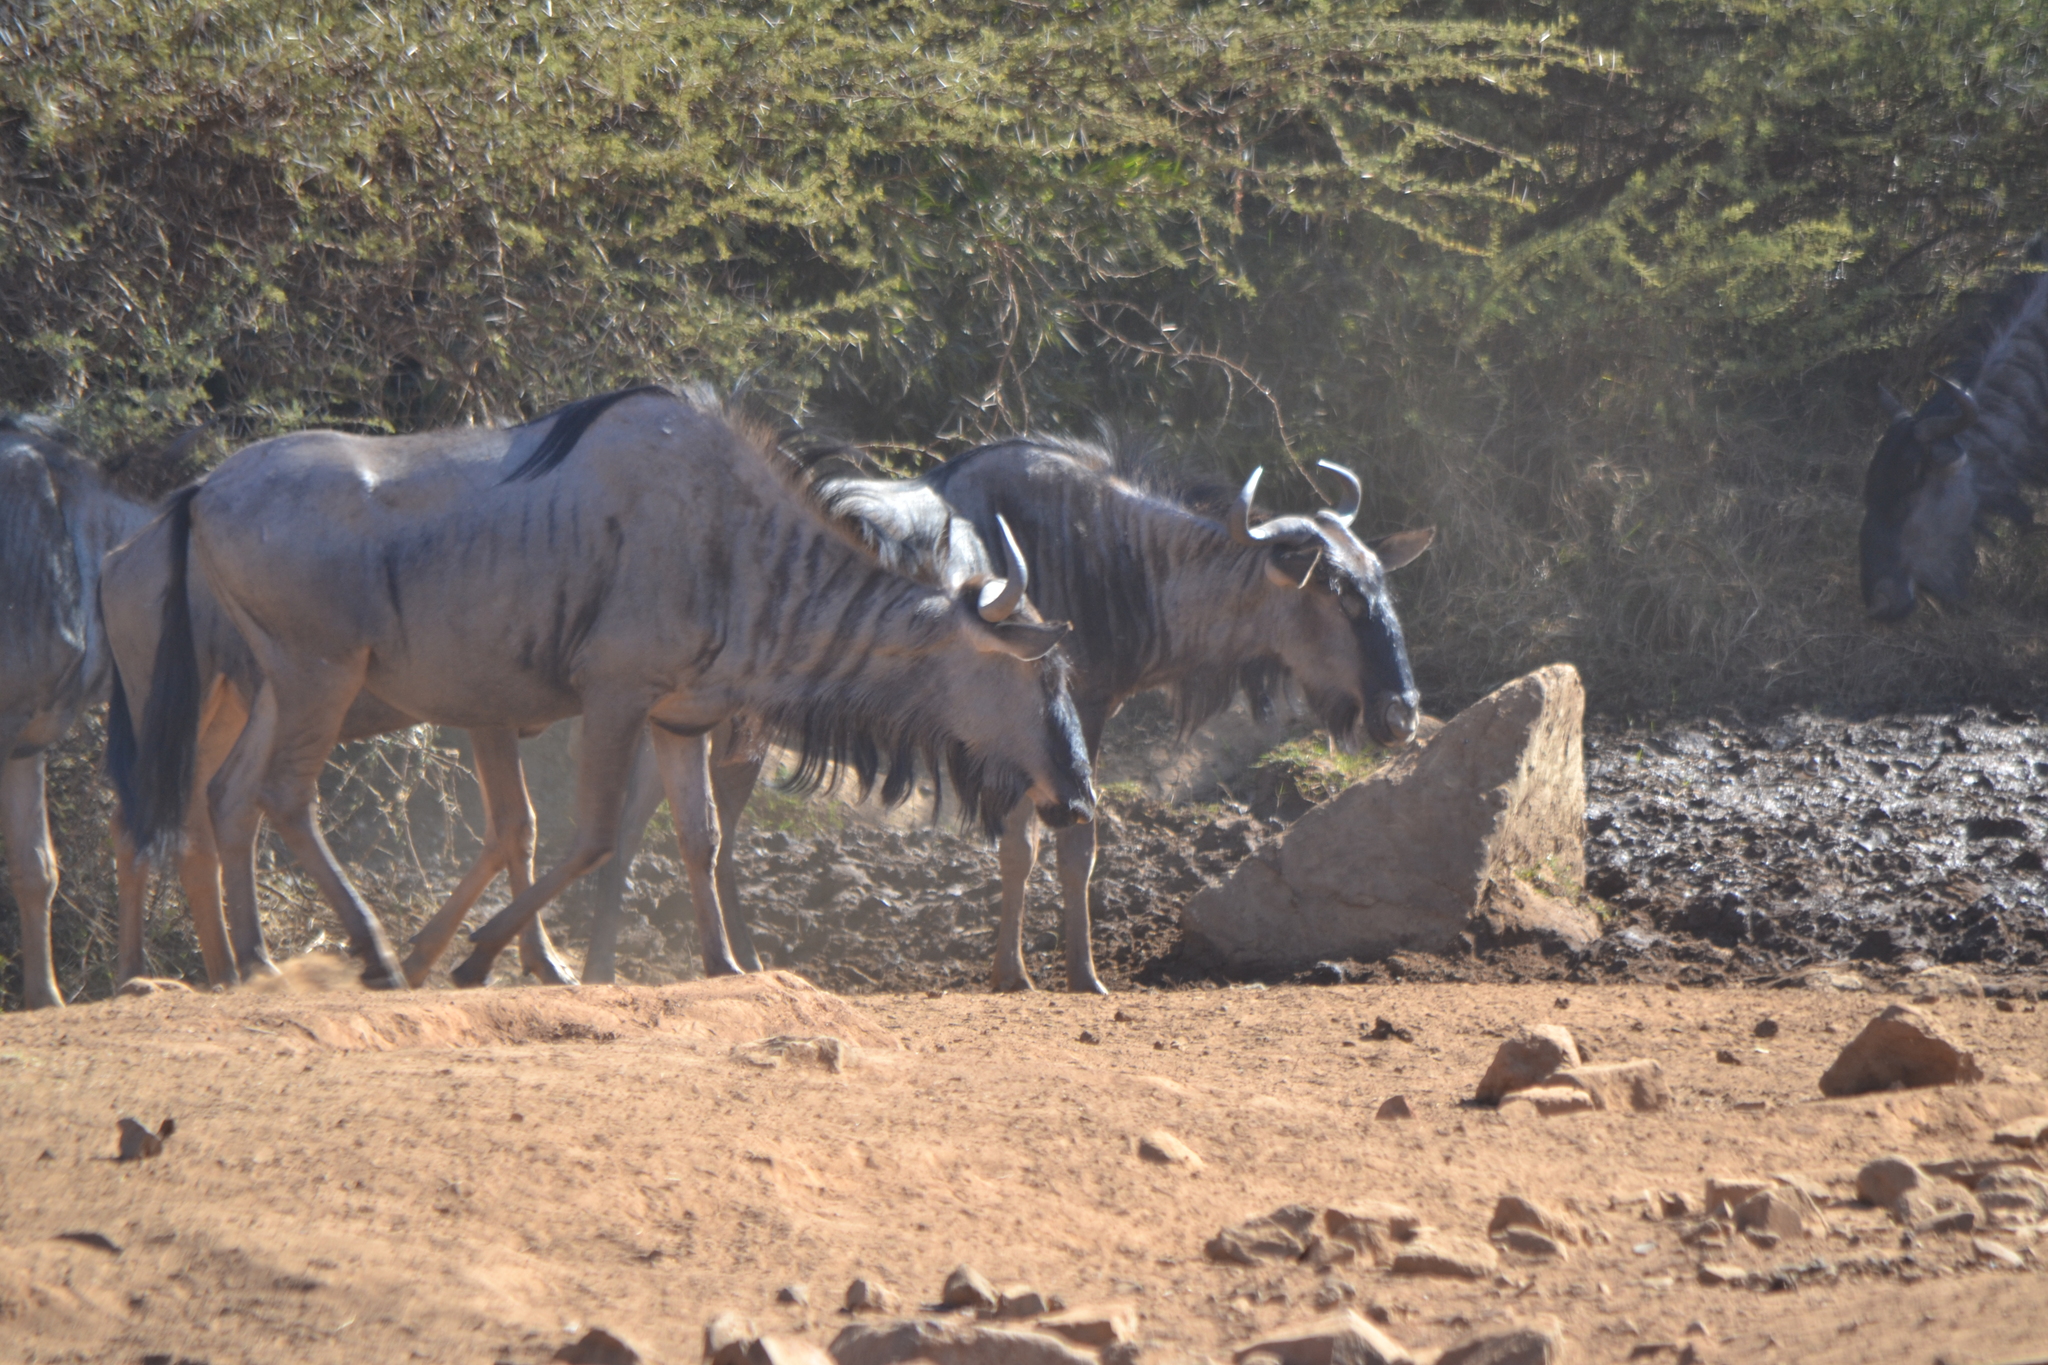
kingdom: Animalia
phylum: Chordata
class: Mammalia
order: Artiodactyla
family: Bovidae
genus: Connochaetes
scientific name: Connochaetes taurinus
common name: Blue wildebeest
